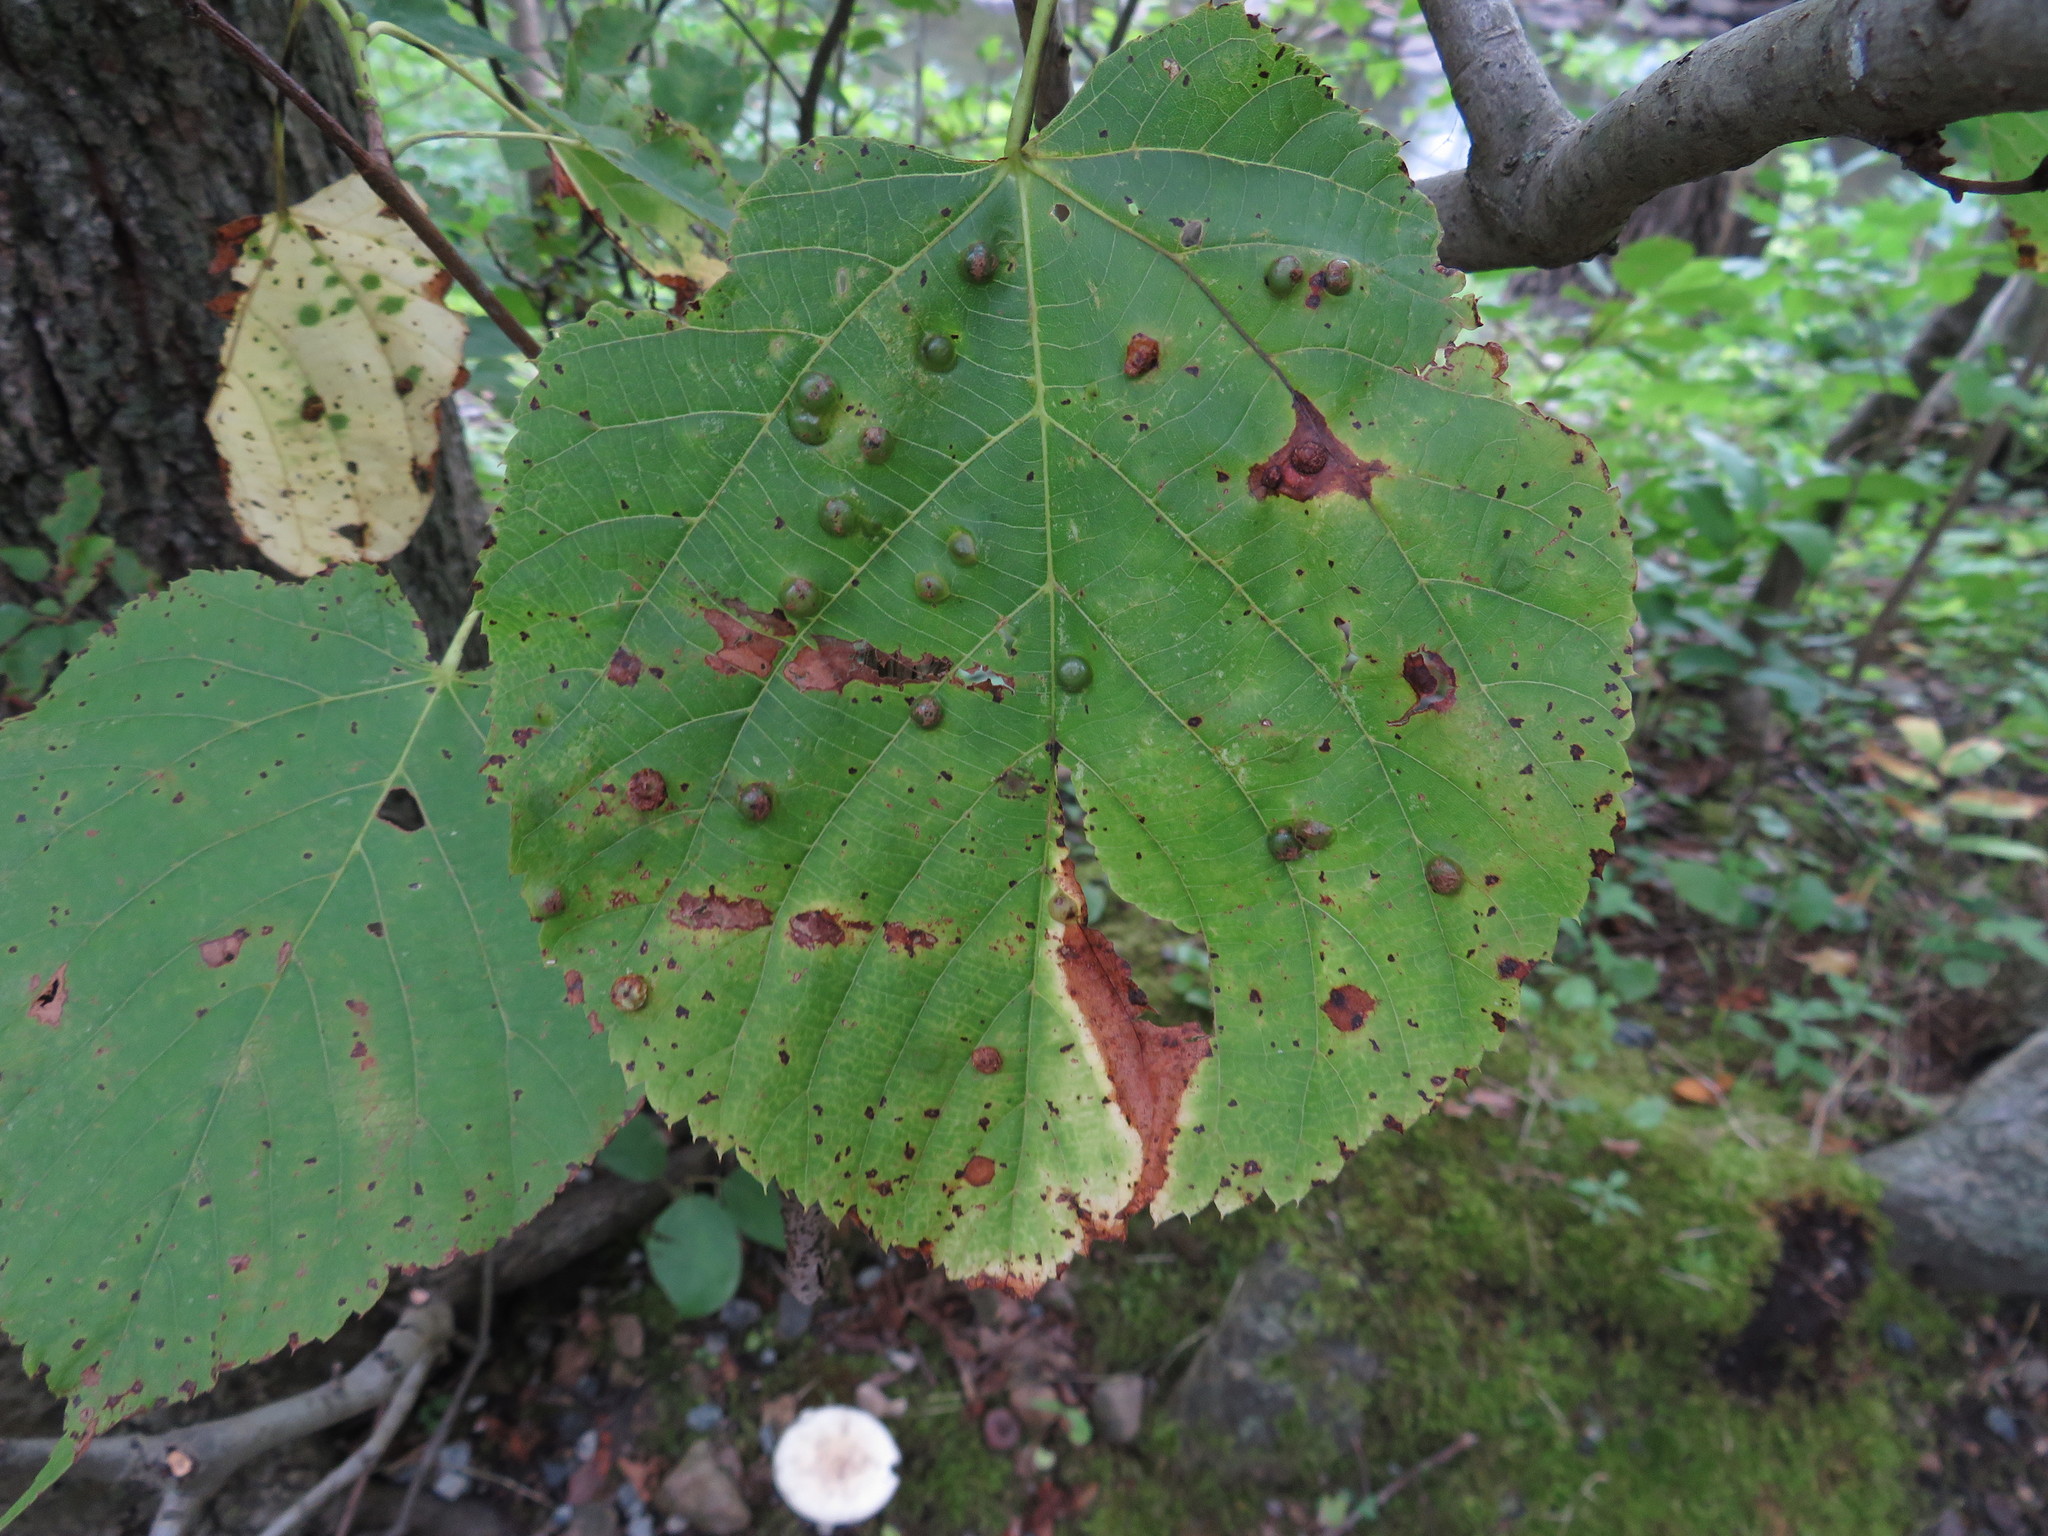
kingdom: Animalia
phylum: Arthropoda
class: Insecta
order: Diptera
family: Cecidomyiidae
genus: Contarinia
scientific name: Contarinia verrucicola
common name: Linden wart gall midge
